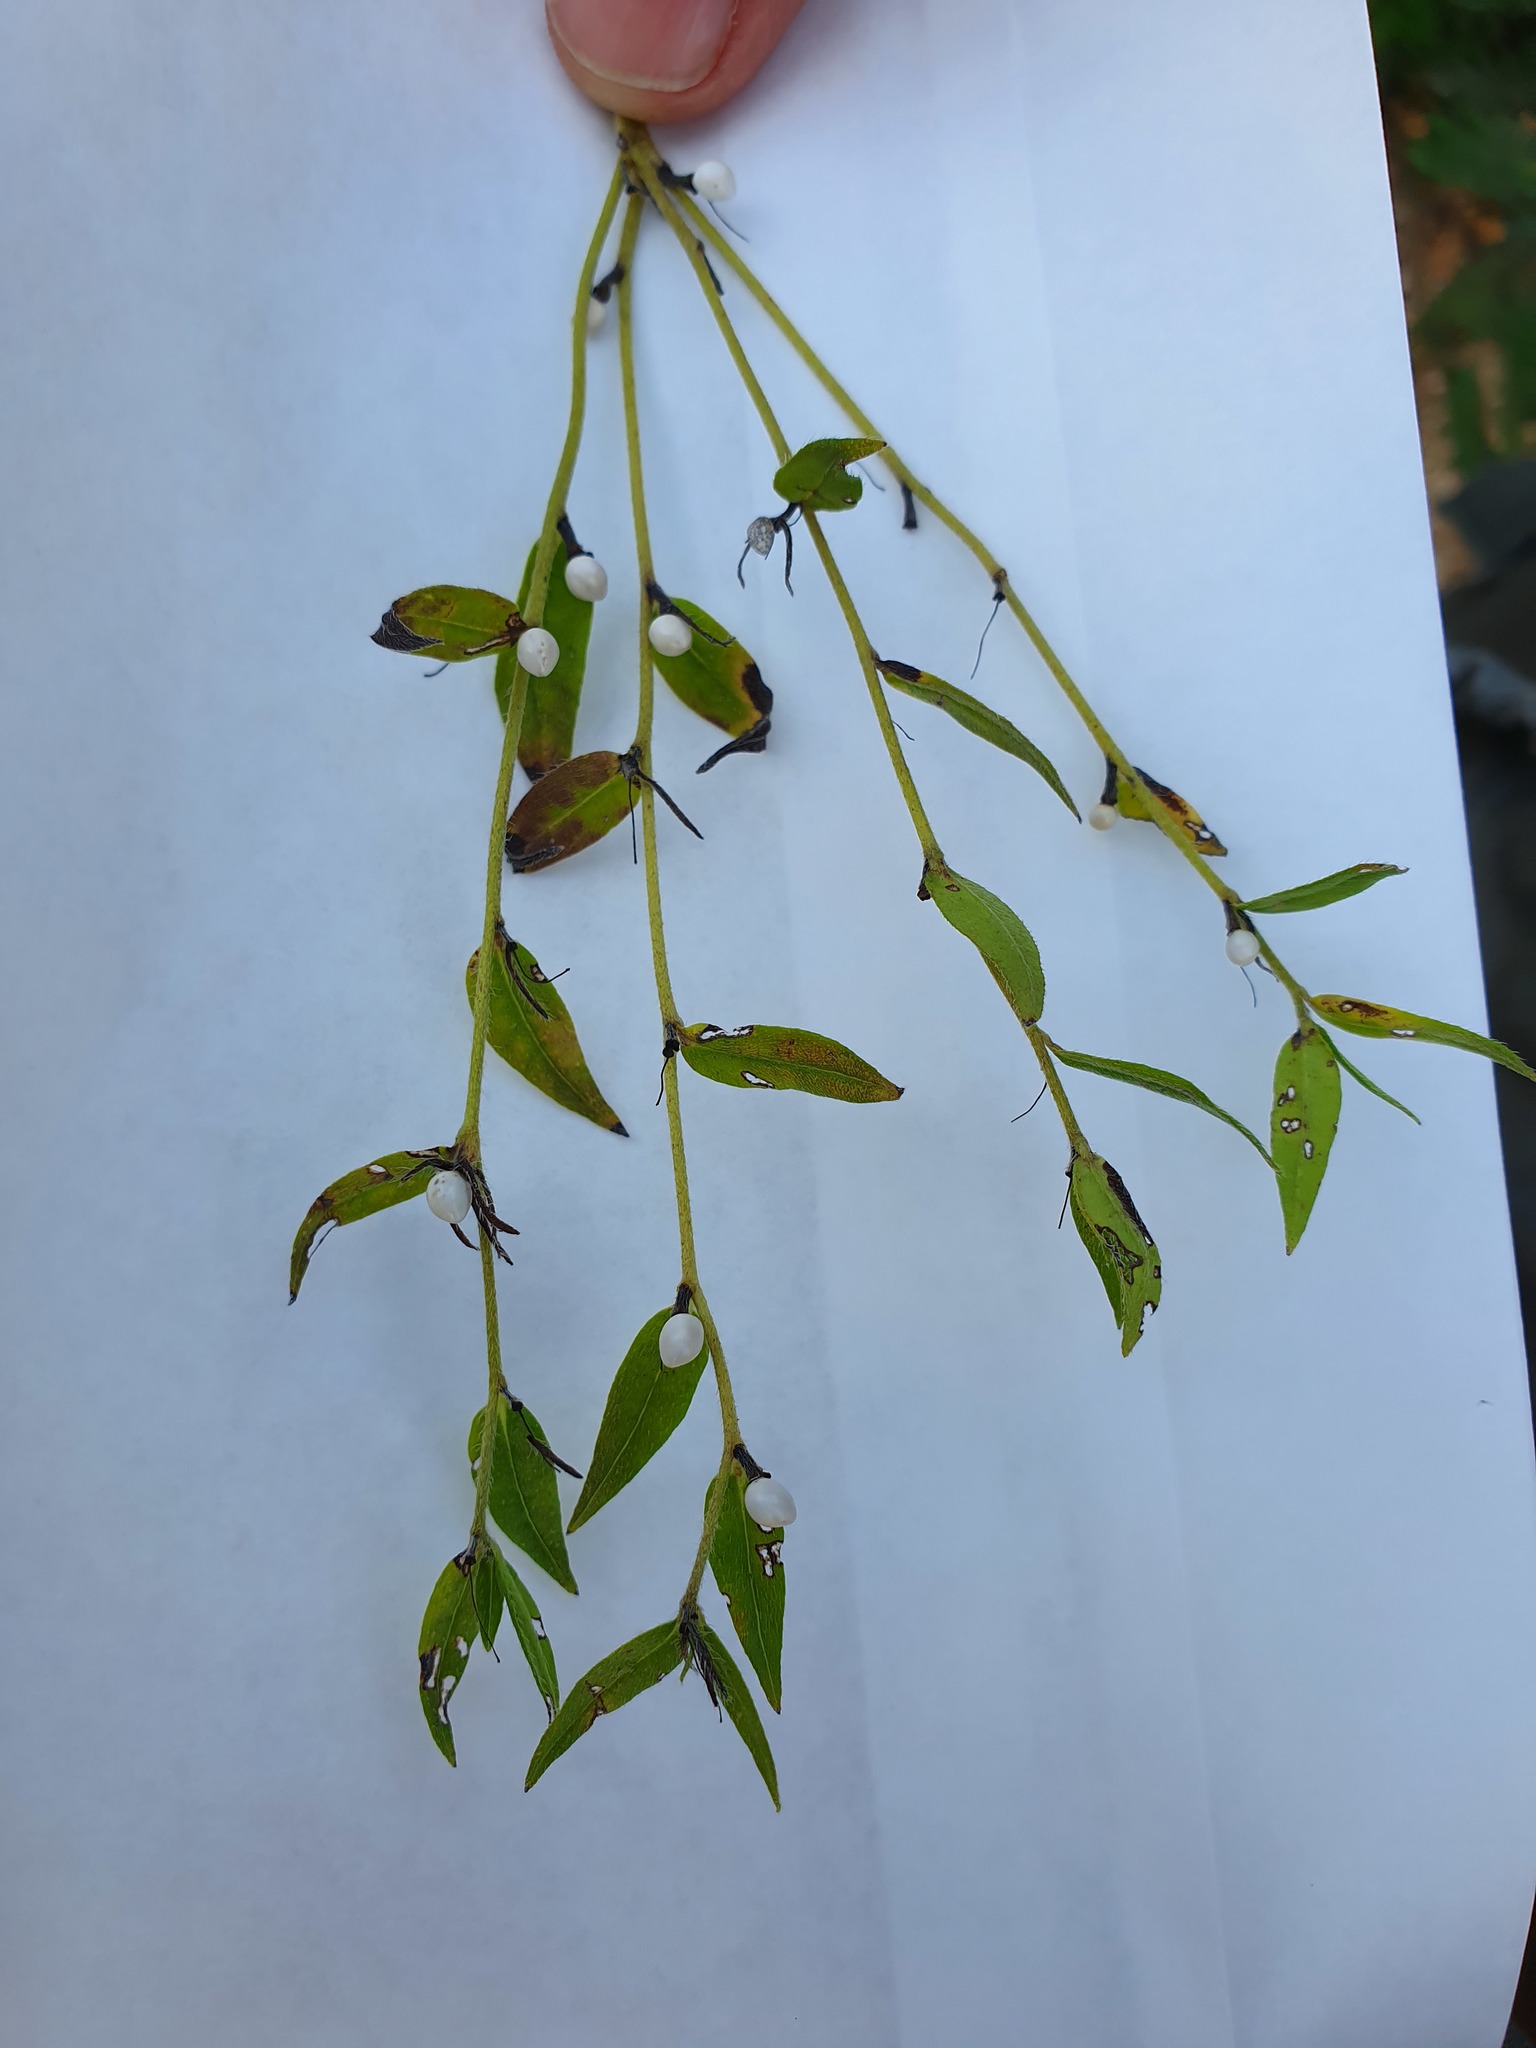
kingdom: Plantae
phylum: Tracheophyta
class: Magnoliopsida
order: Boraginales
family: Boraginaceae
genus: Aegonychon
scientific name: Aegonychon purpurocaeruleum
